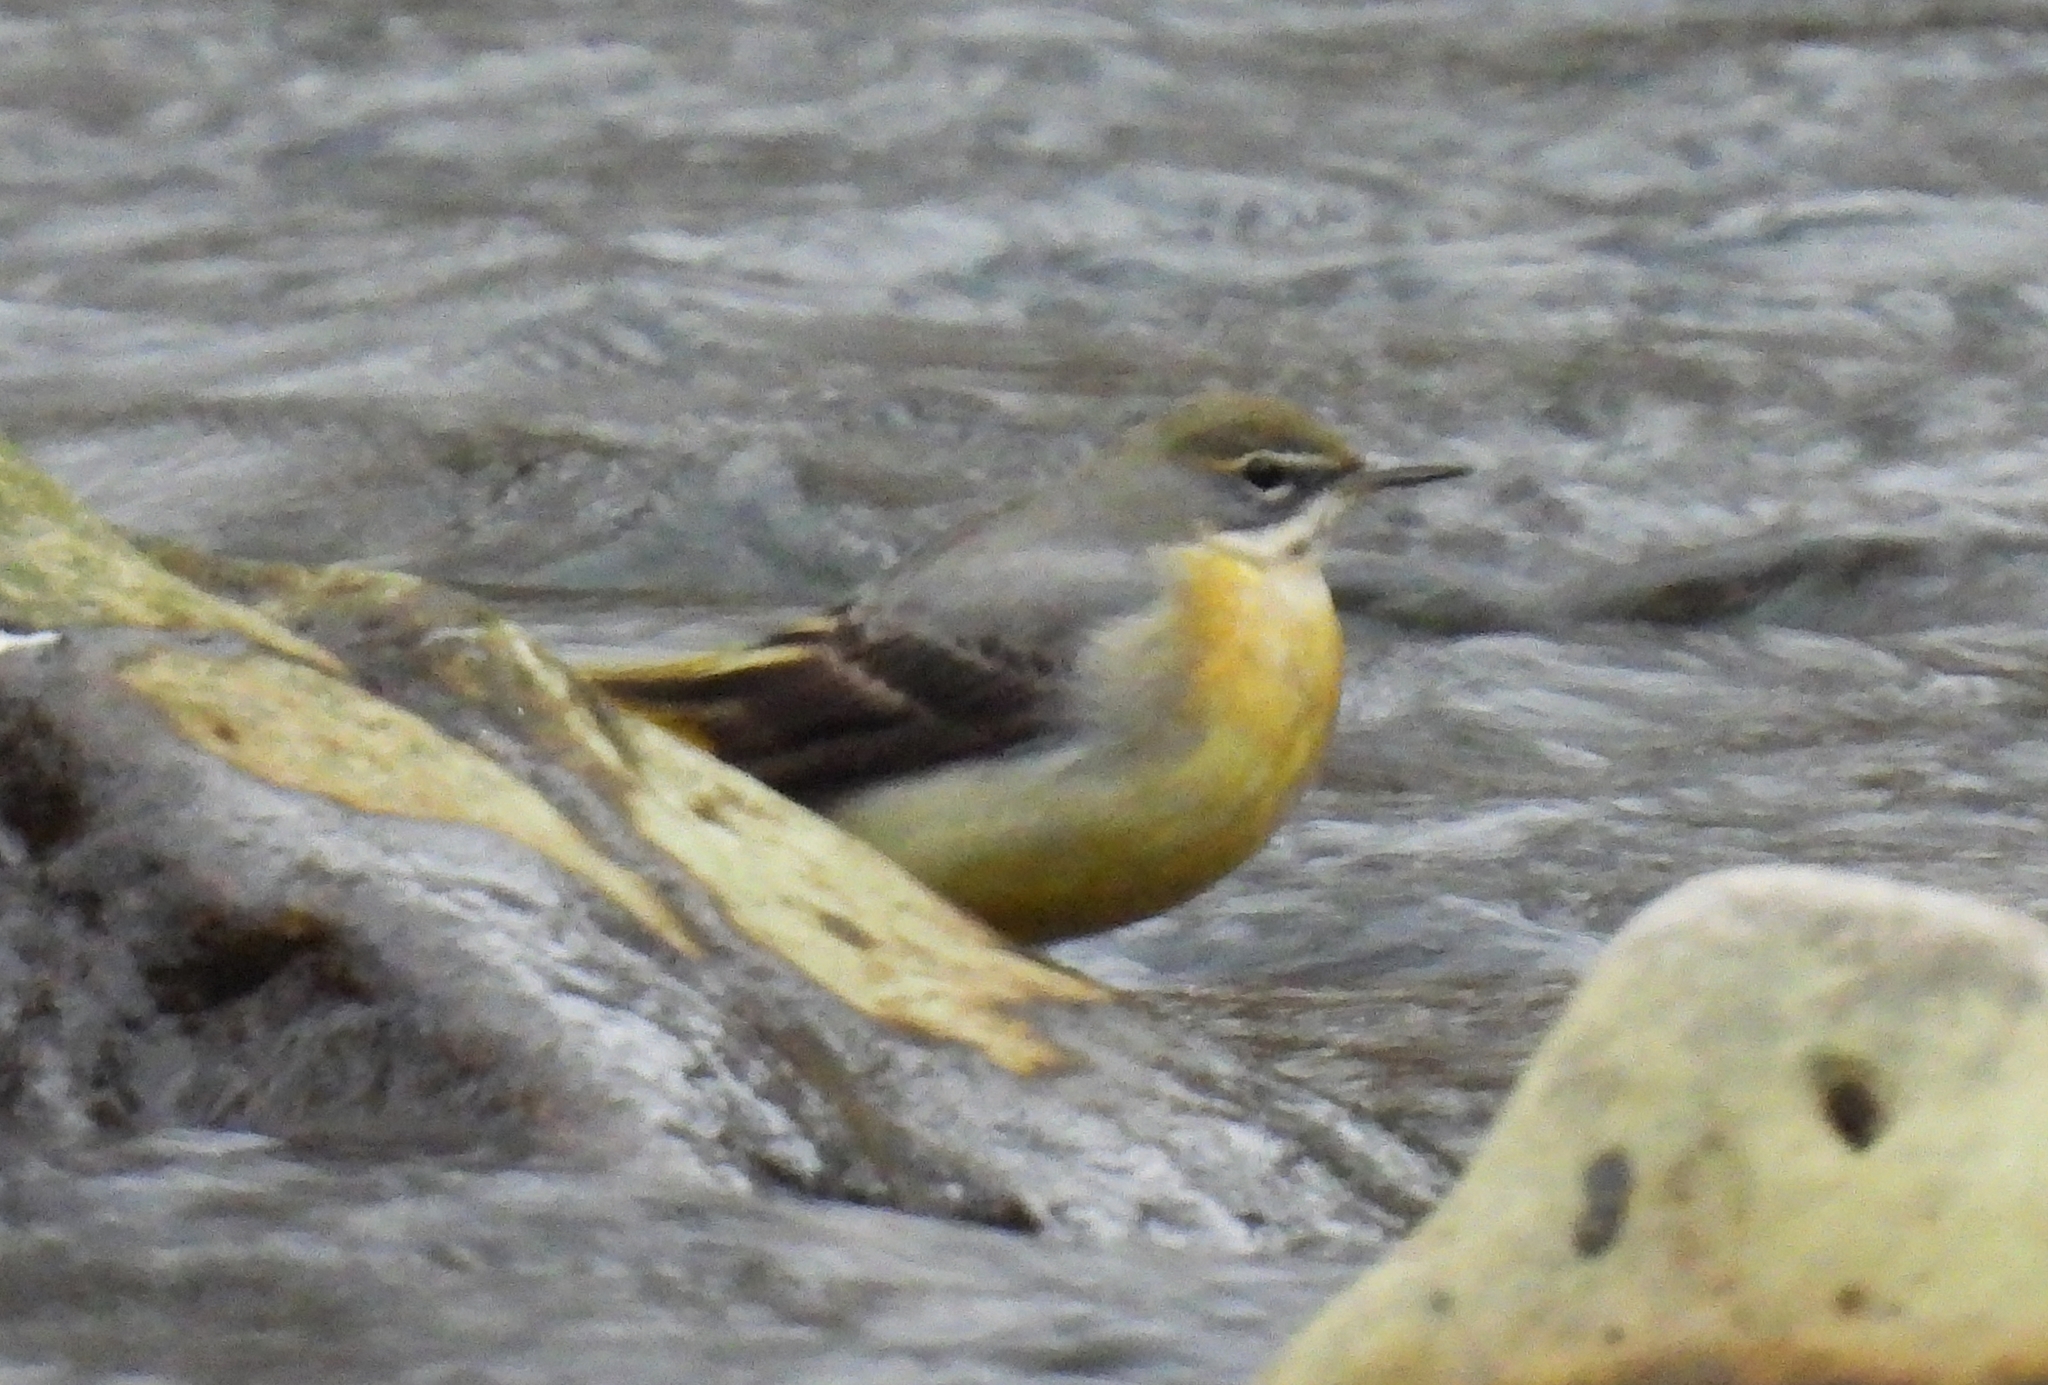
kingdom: Animalia
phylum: Chordata
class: Aves
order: Passeriformes
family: Motacillidae
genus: Motacilla
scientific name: Motacilla cinerea
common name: Grey wagtail
